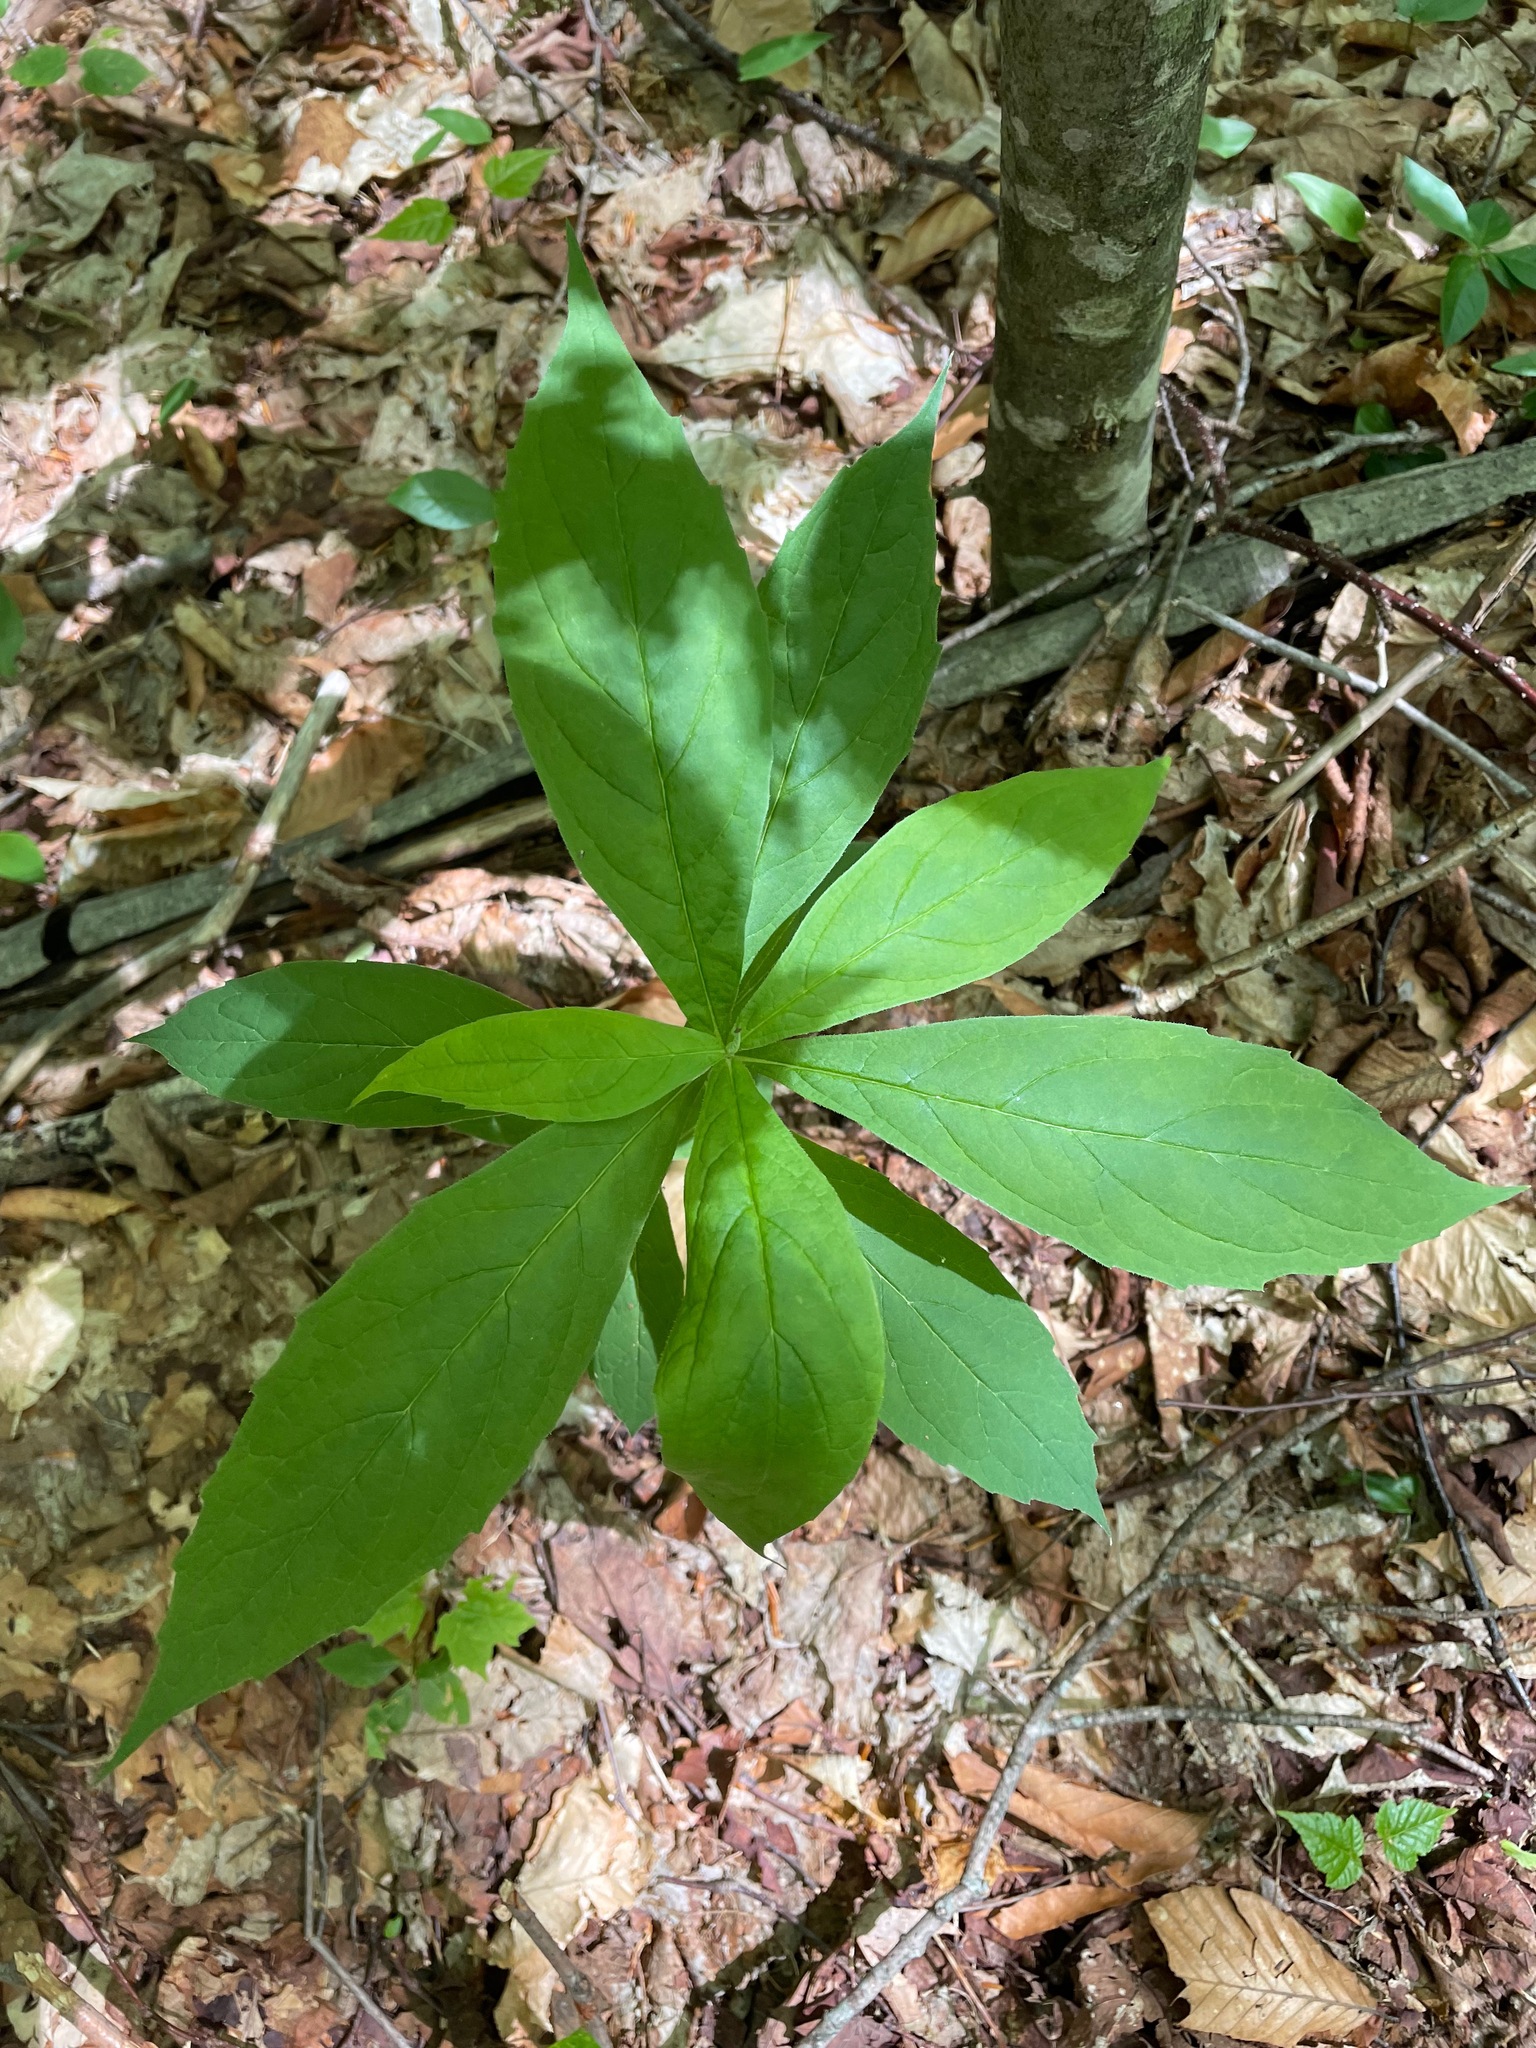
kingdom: Plantae
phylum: Tracheophyta
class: Magnoliopsida
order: Asterales
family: Asteraceae
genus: Oclemena
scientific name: Oclemena acuminata
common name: Mountain aster
